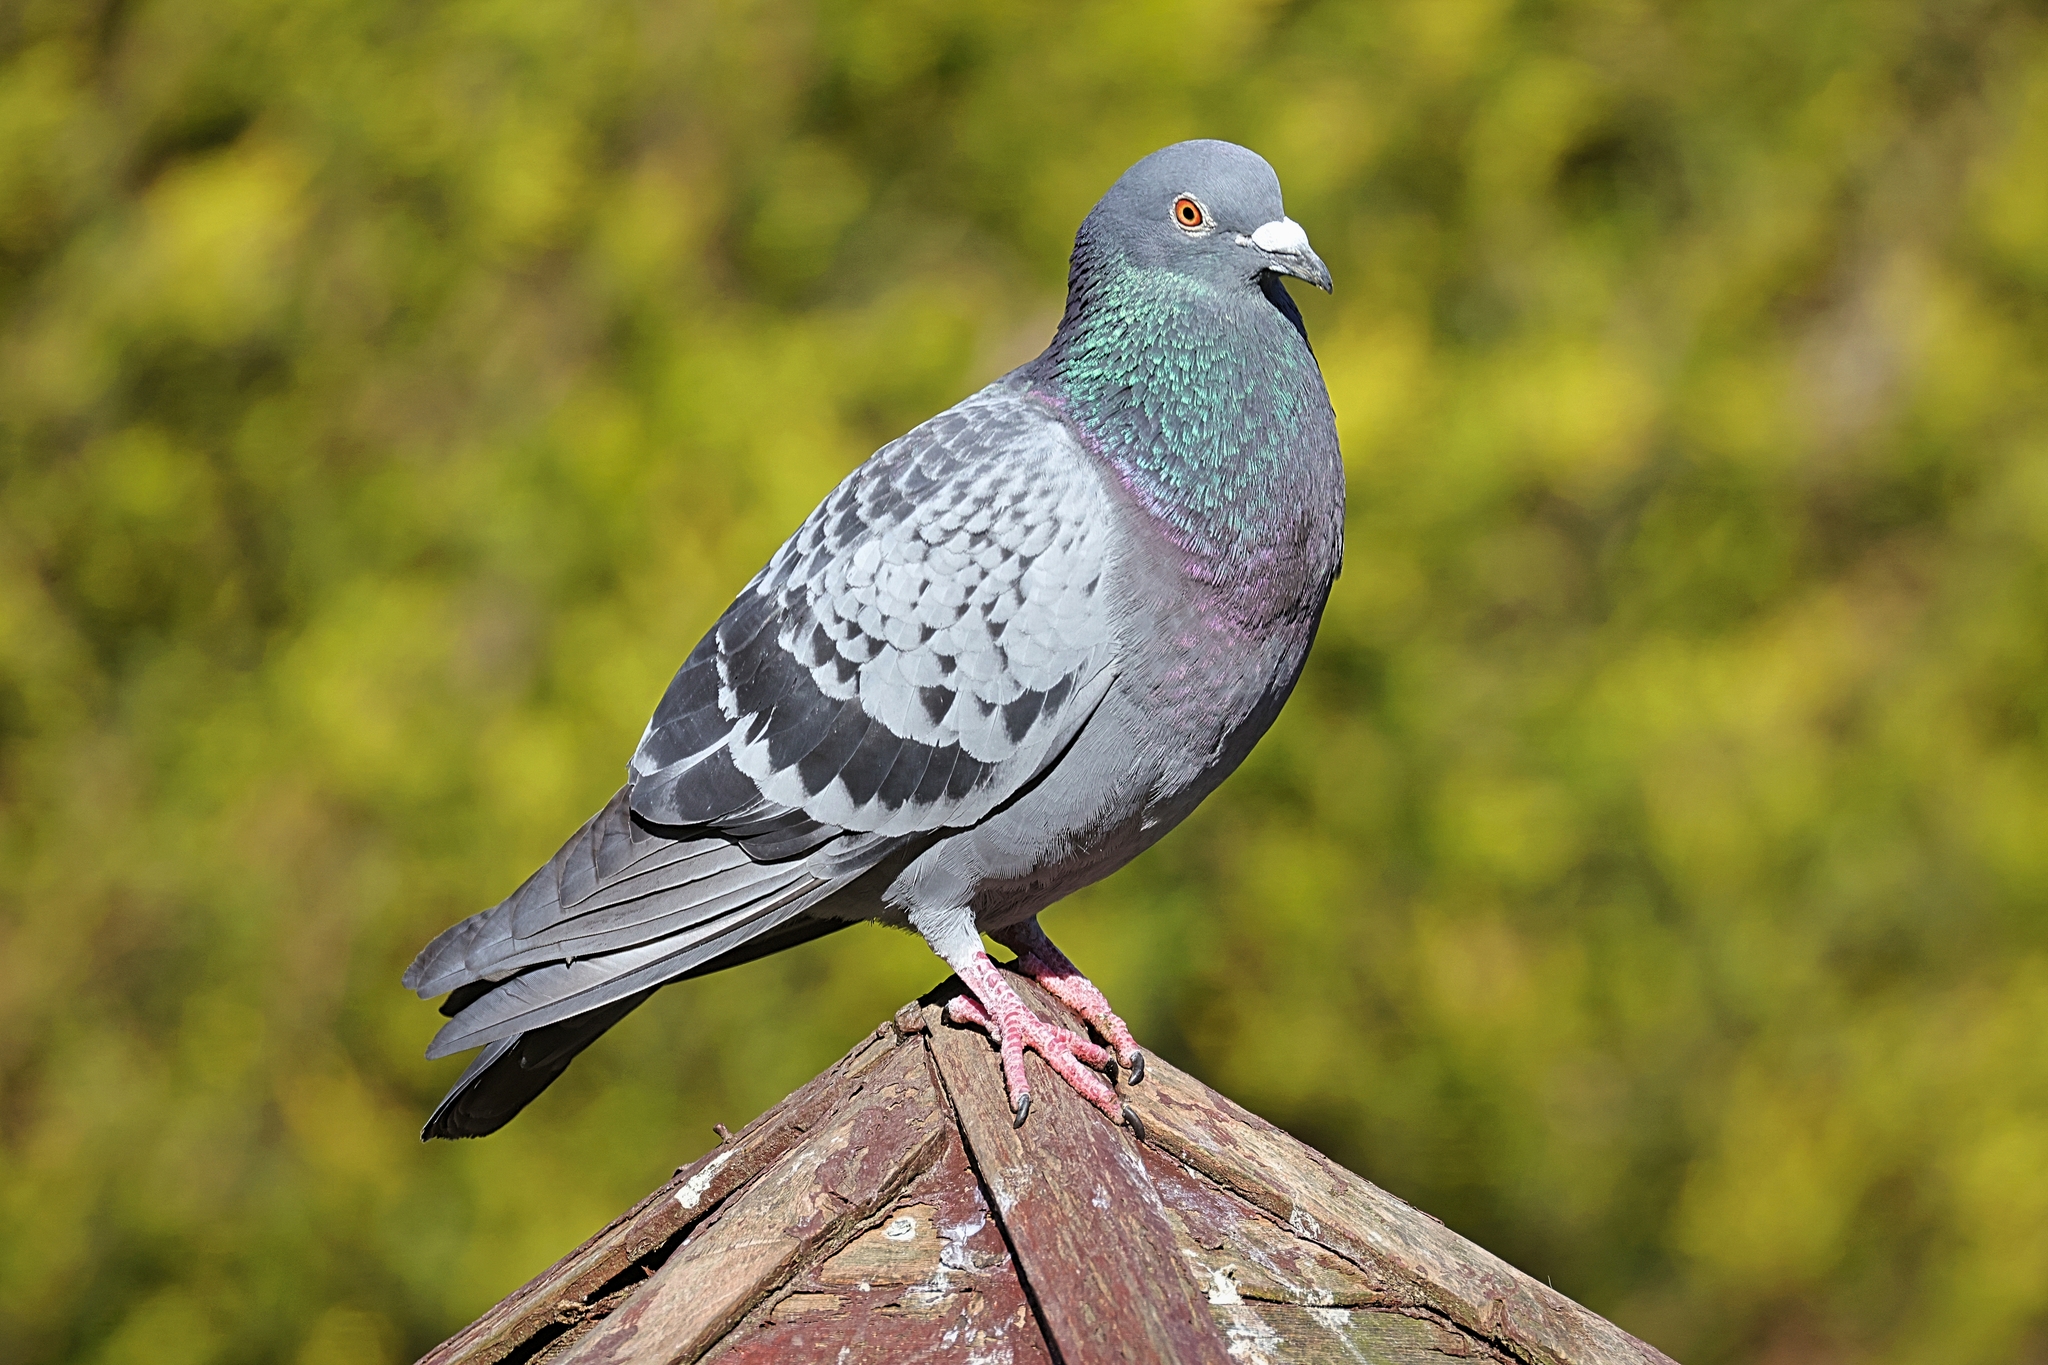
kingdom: Animalia
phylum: Chordata
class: Aves
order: Columbiformes
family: Columbidae
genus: Columba
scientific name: Columba livia
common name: Rock pigeon
